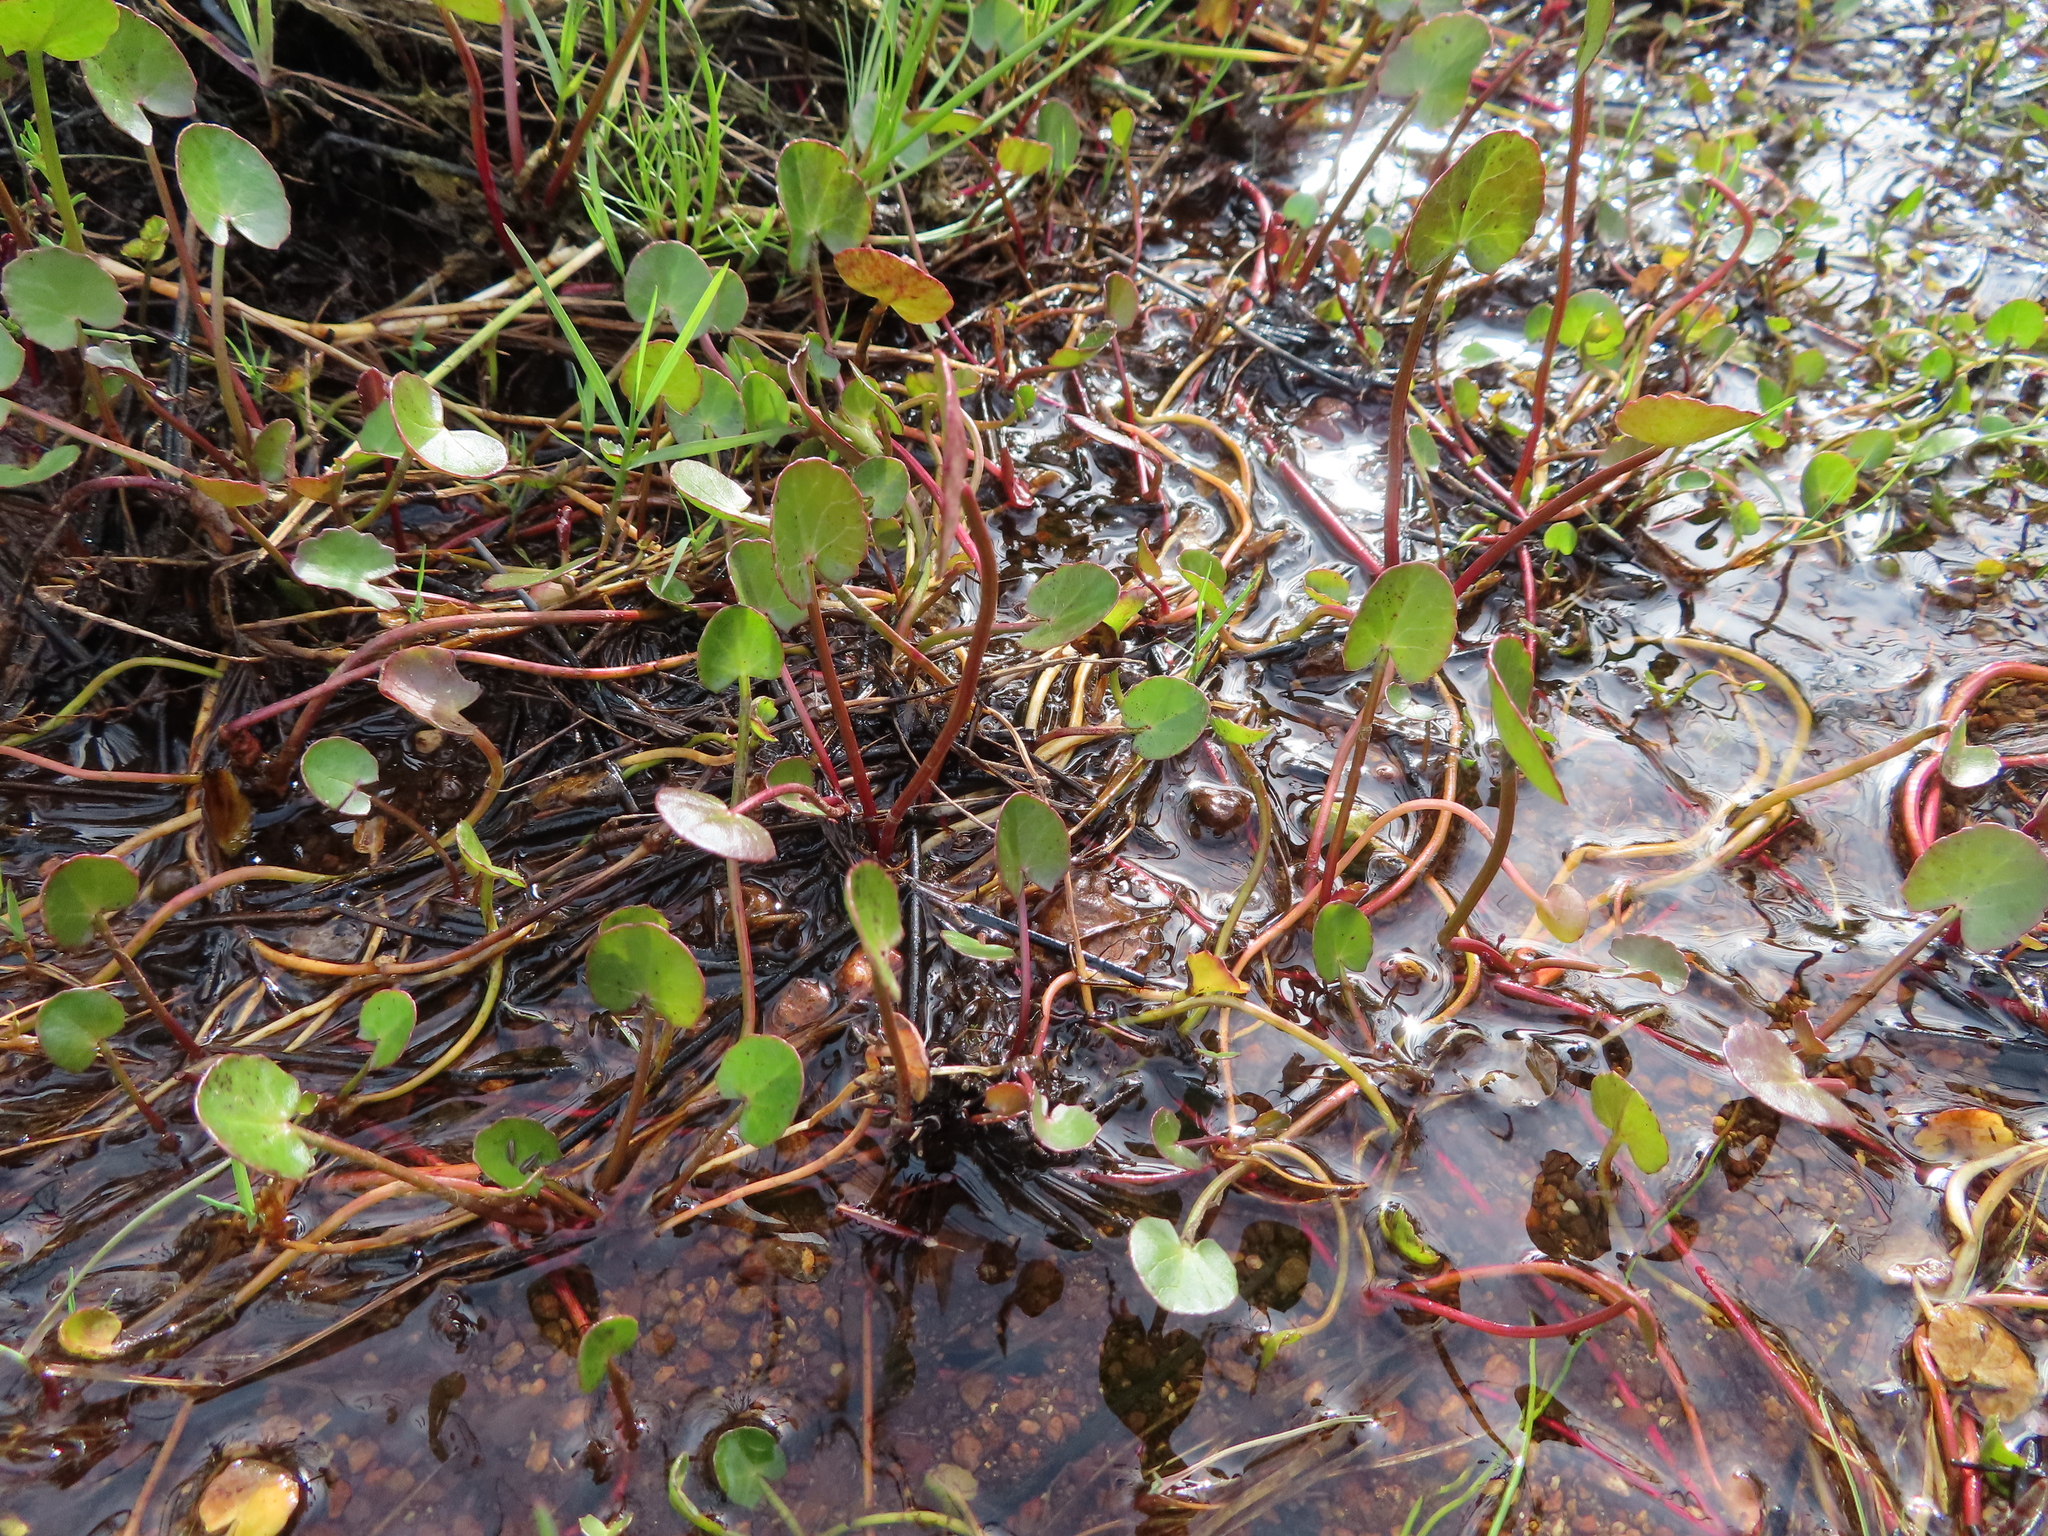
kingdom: Plantae
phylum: Tracheophyta
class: Magnoliopsida
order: Apiales
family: Apiaceae
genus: Centella
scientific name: Centella asiatica
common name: Spadeleaf
